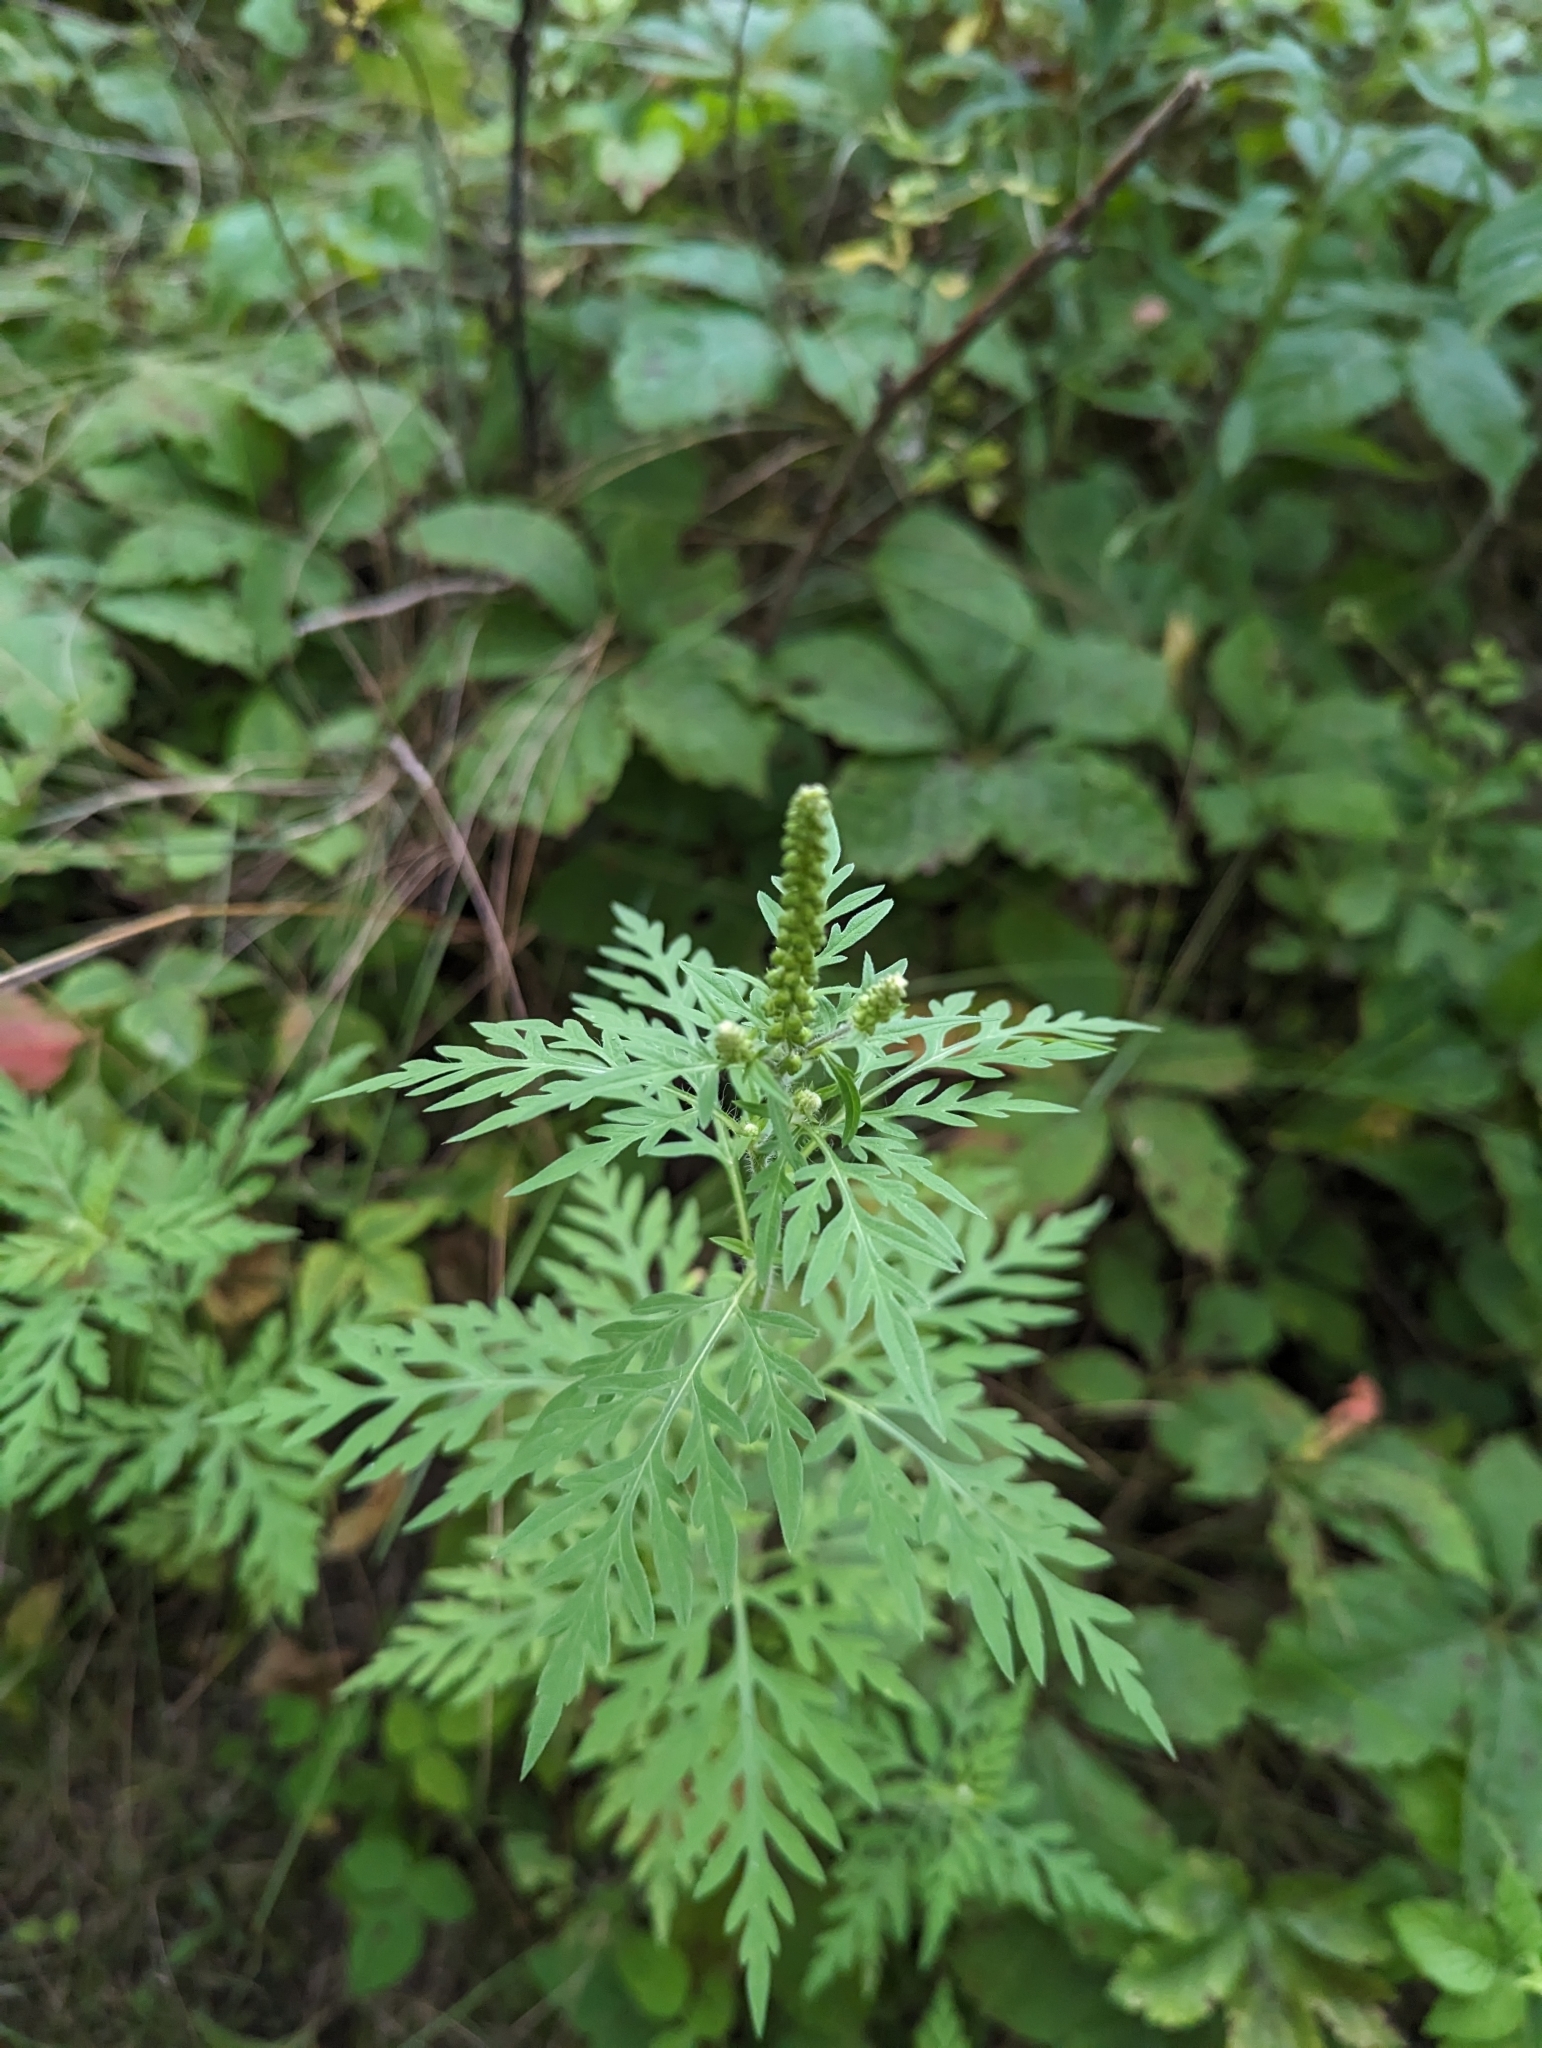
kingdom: Plantae
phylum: Tracheophyta
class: Magnoliopsida
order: Asterales
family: Asteraceae
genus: Ambrosia
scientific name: Ambrosia artemisiifolia
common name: Annual ragweed
